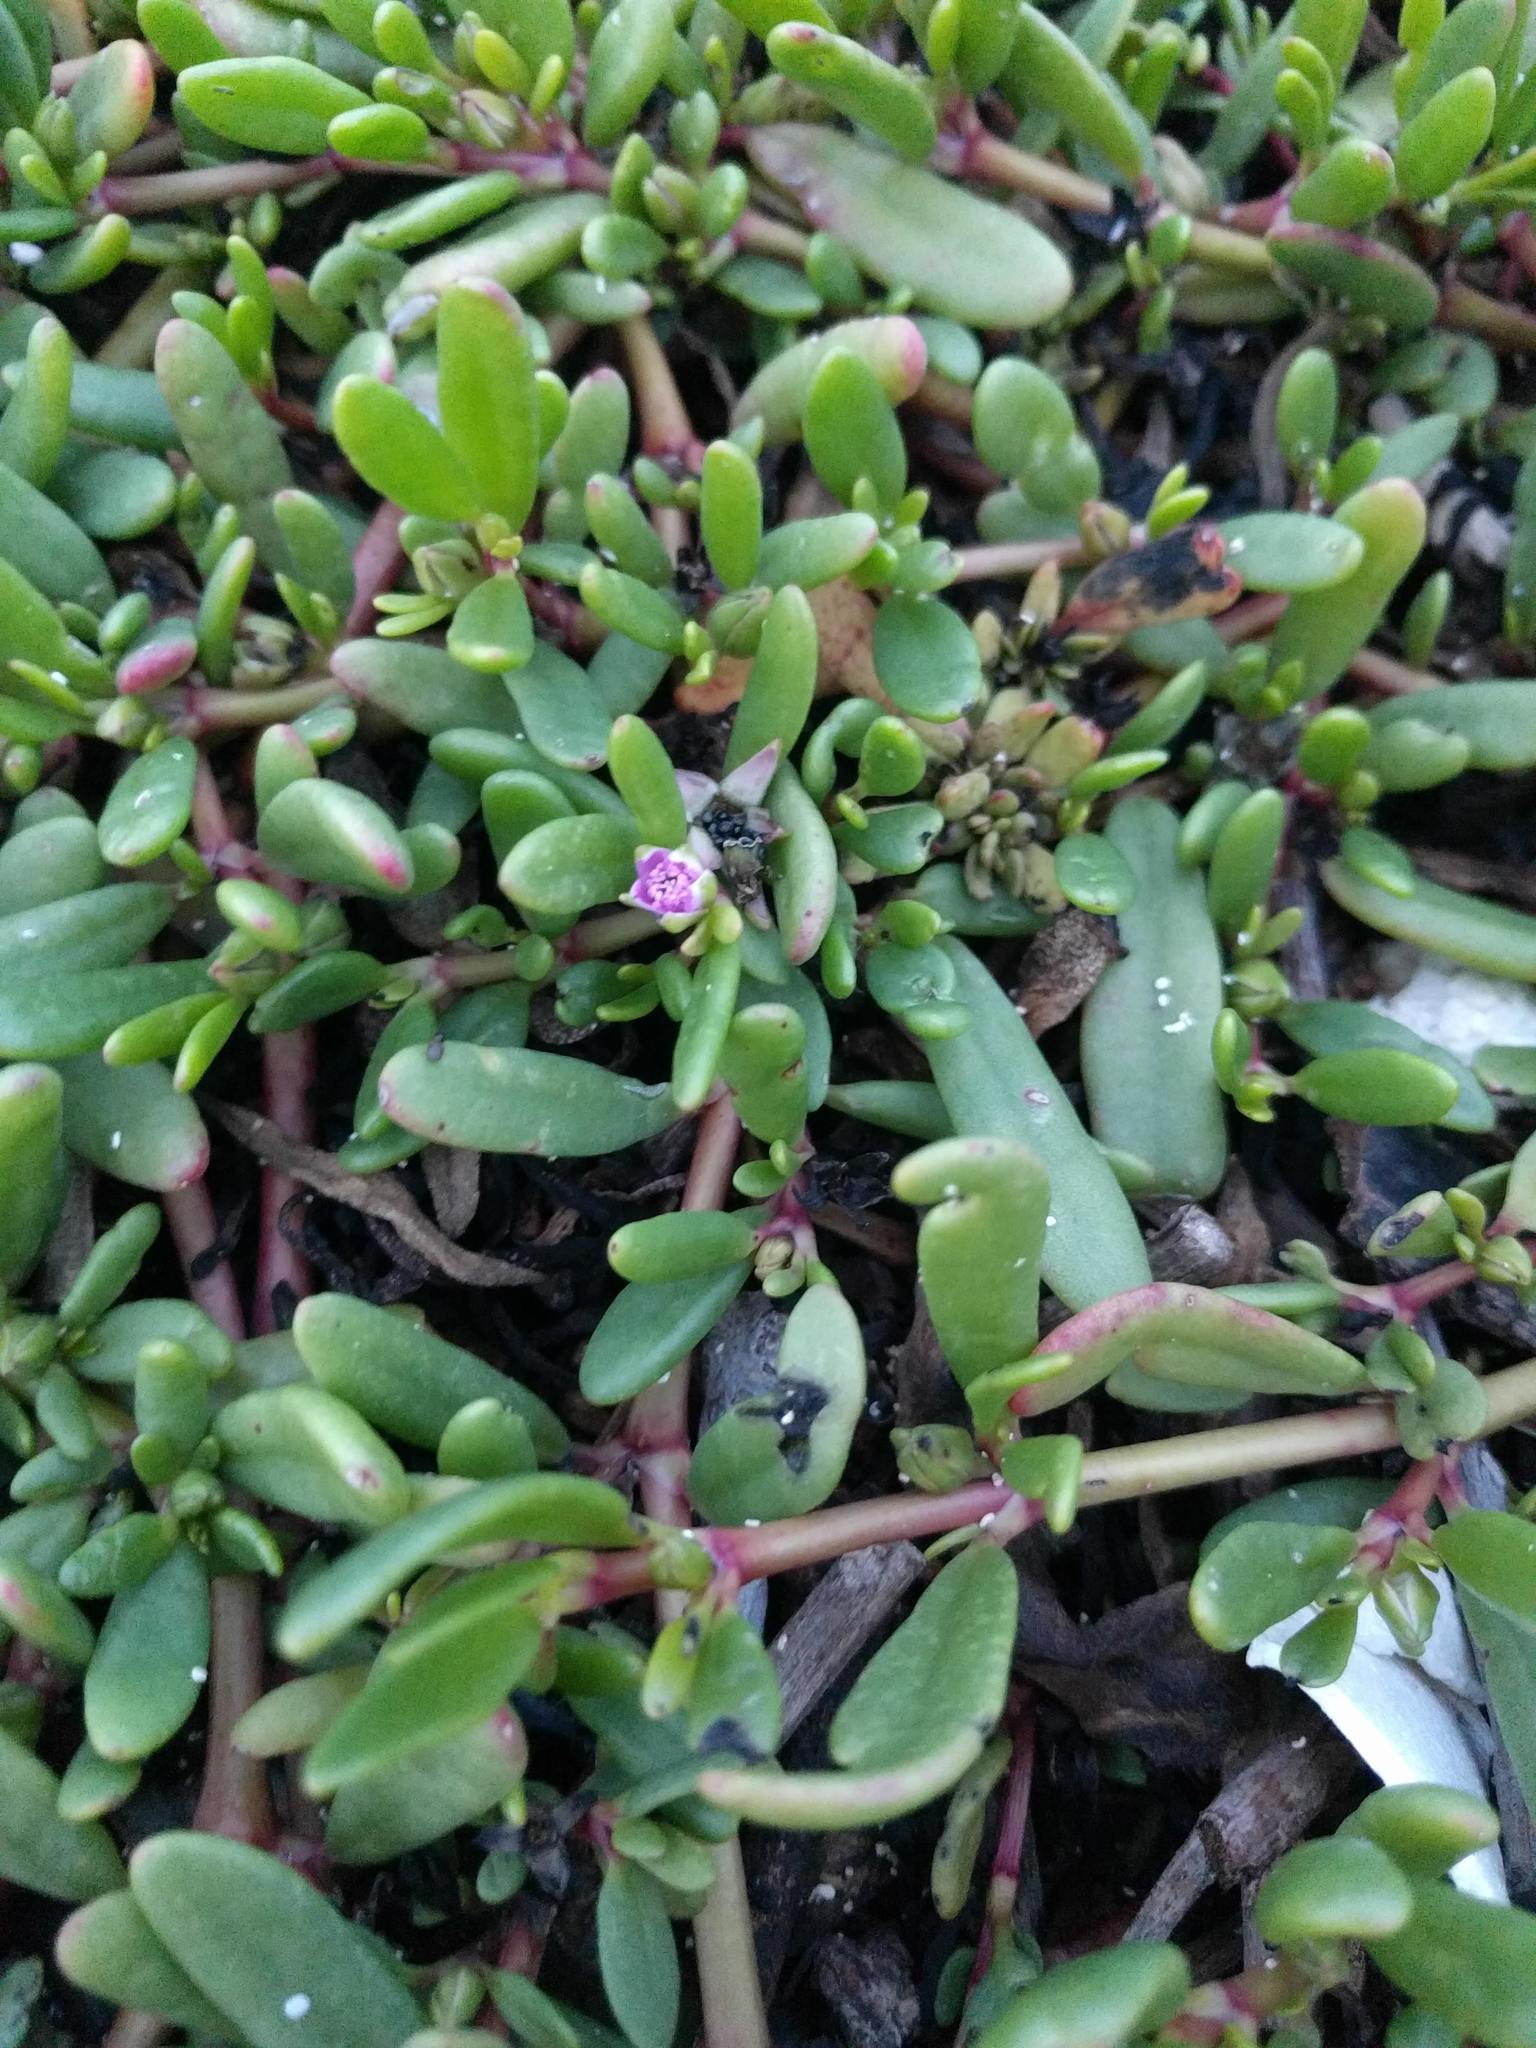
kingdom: Plantae
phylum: Tracheophyta
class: Magnoliopsida
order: Caryophyllales
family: Aizoaceae
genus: Sesuvium
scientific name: Sesuvium portulacastrum
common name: Sea-purslane
